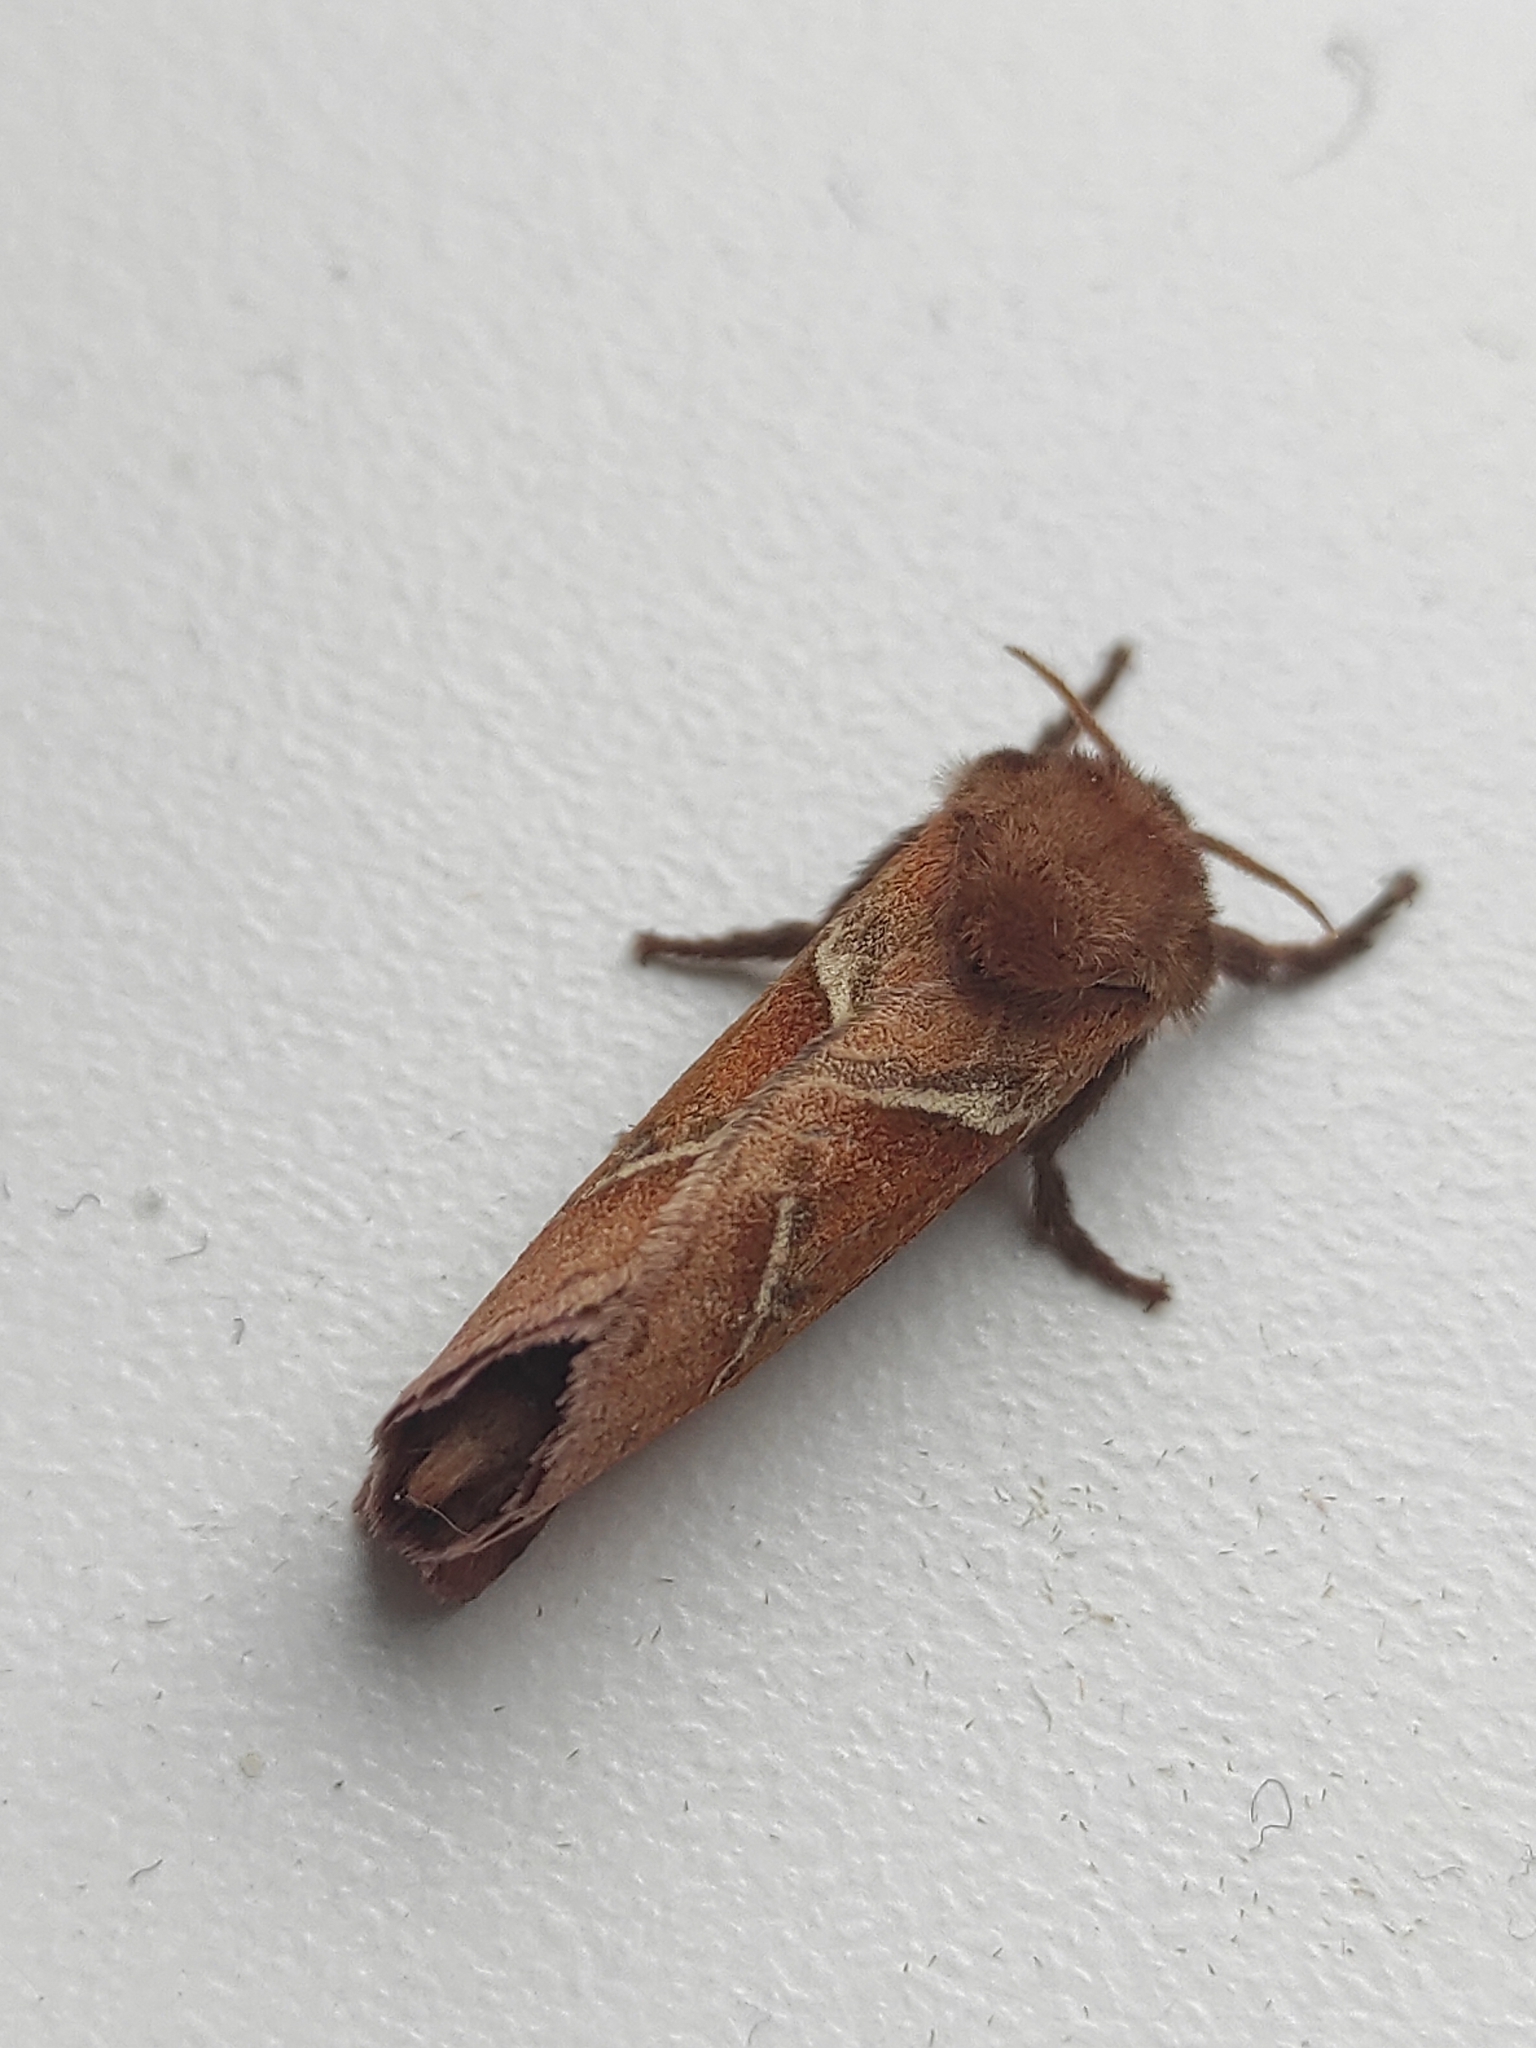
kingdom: Animalia
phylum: Arthropoda
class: Insecta
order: Lepidoptera
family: Hepialidae
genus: Triodia
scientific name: Triodia sylvina
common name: Orange swift
